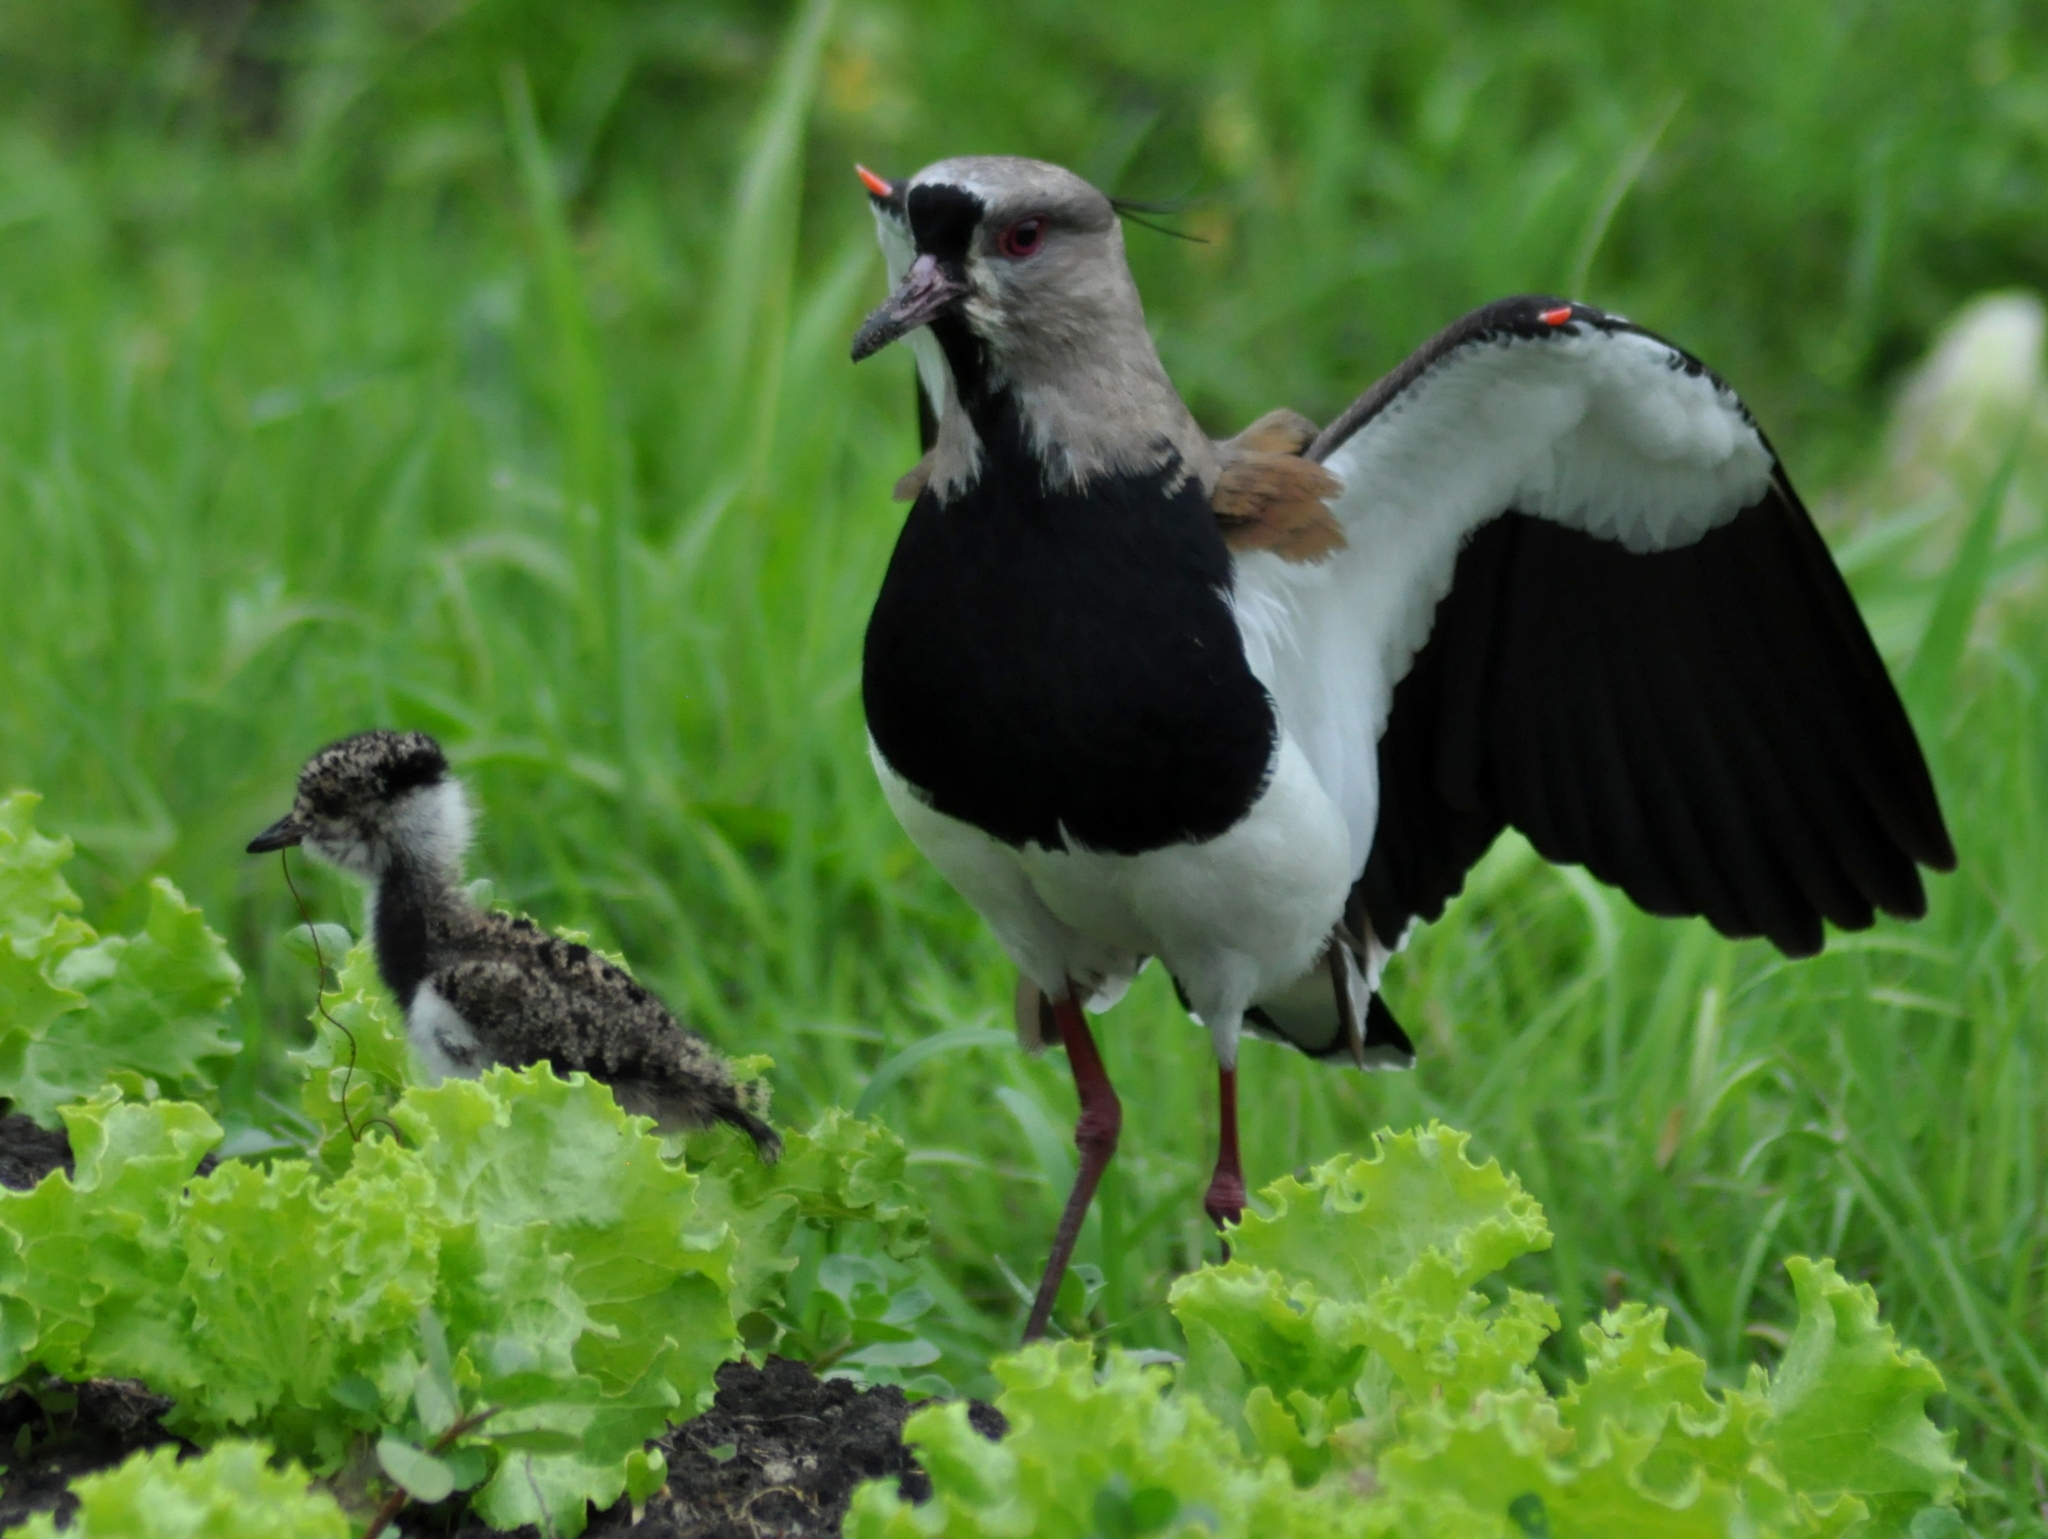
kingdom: Animalia
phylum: Chordata
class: Aves
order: Charadriiformes
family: Charadriidae
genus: Vanellus
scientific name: Vanellus chilensis
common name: Southern lapwing
